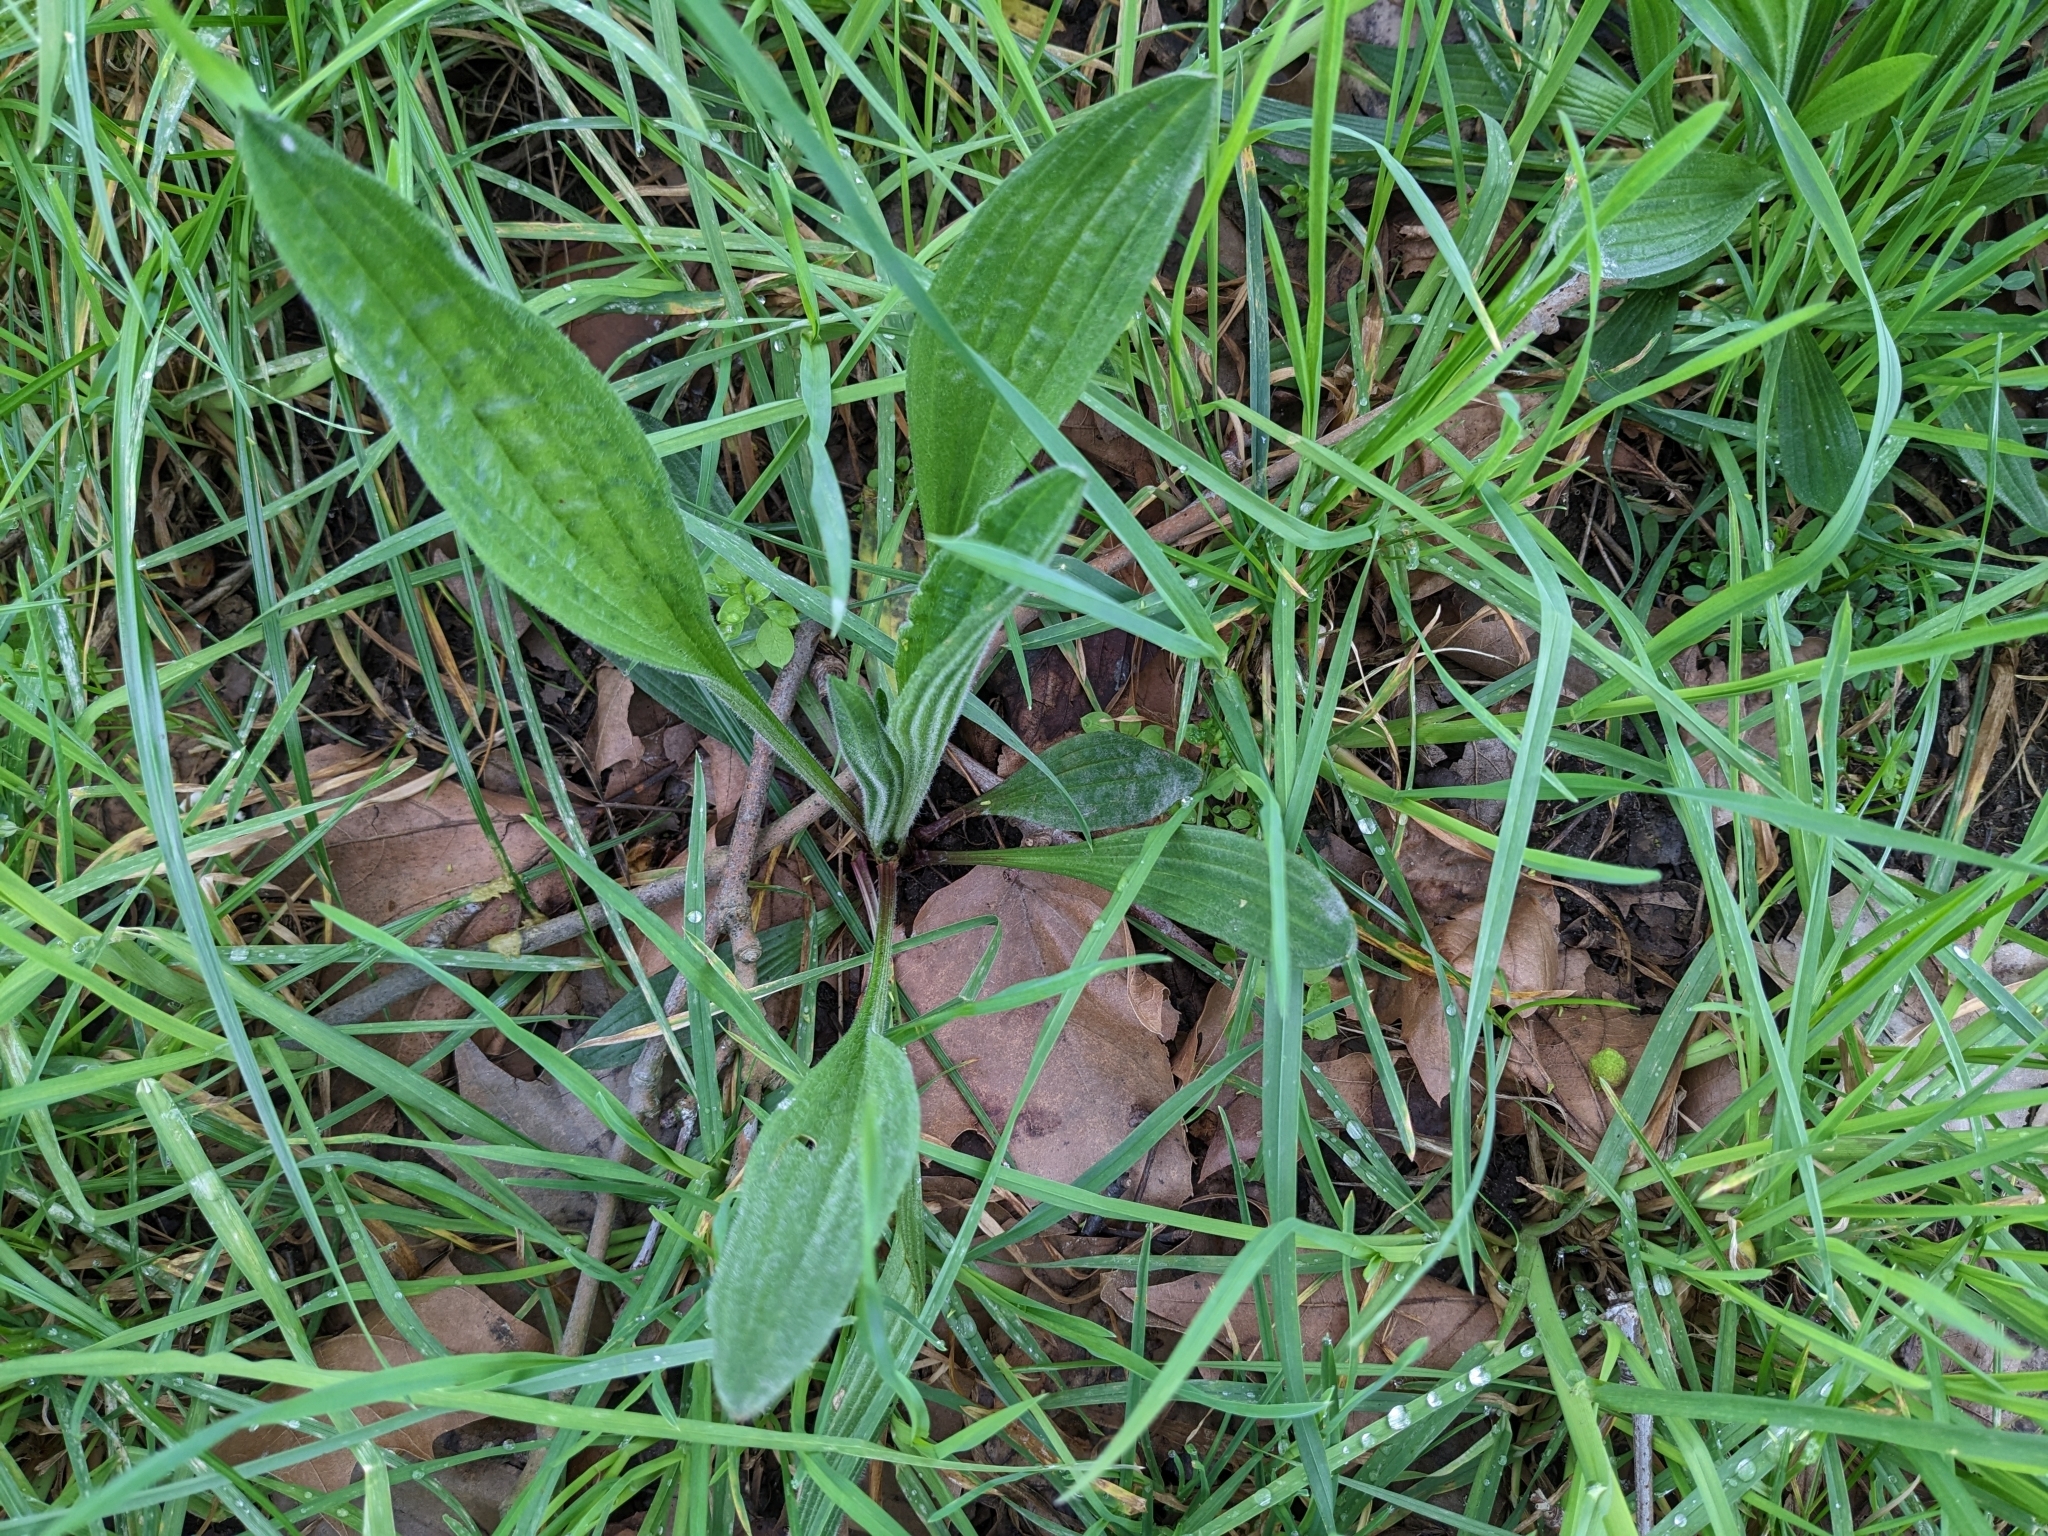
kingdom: Plantae
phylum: Tracheophyta
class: Magnoliopsida
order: Lamiales
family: Plantaginaceae
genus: Plantago
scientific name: Plantago lanceolata
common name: Ribwort plantain
